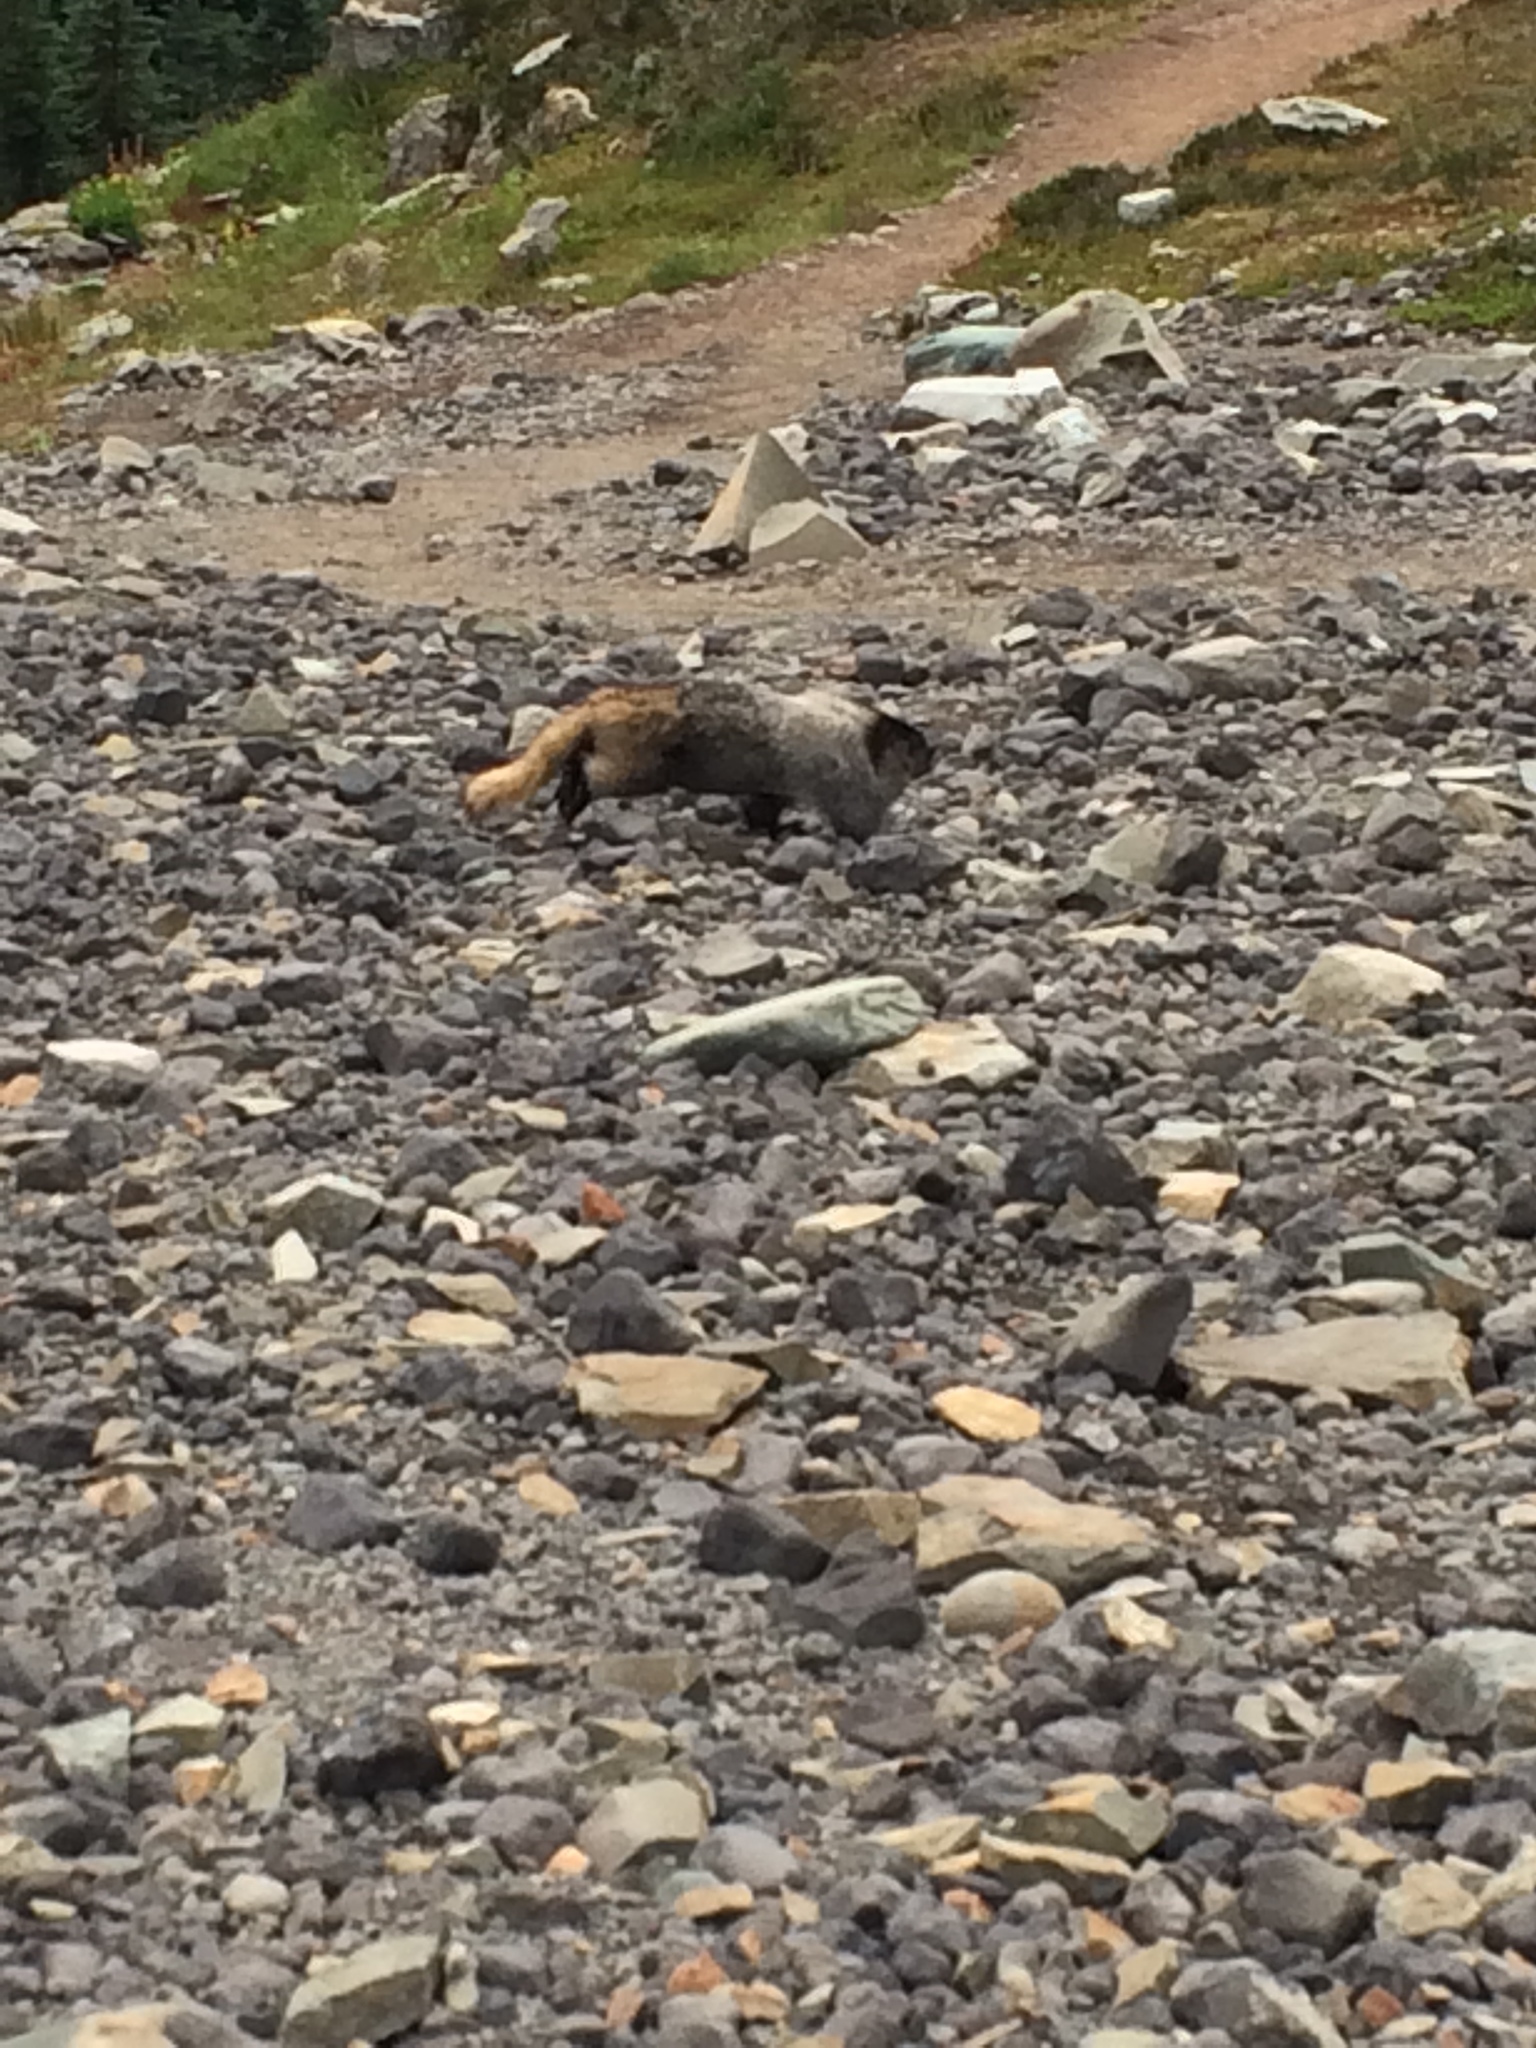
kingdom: Animalia
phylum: Chordata
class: Mammalia
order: Rodentia
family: Sciuridae
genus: Marmota
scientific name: Marmota caligata
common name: Hoary marmot
